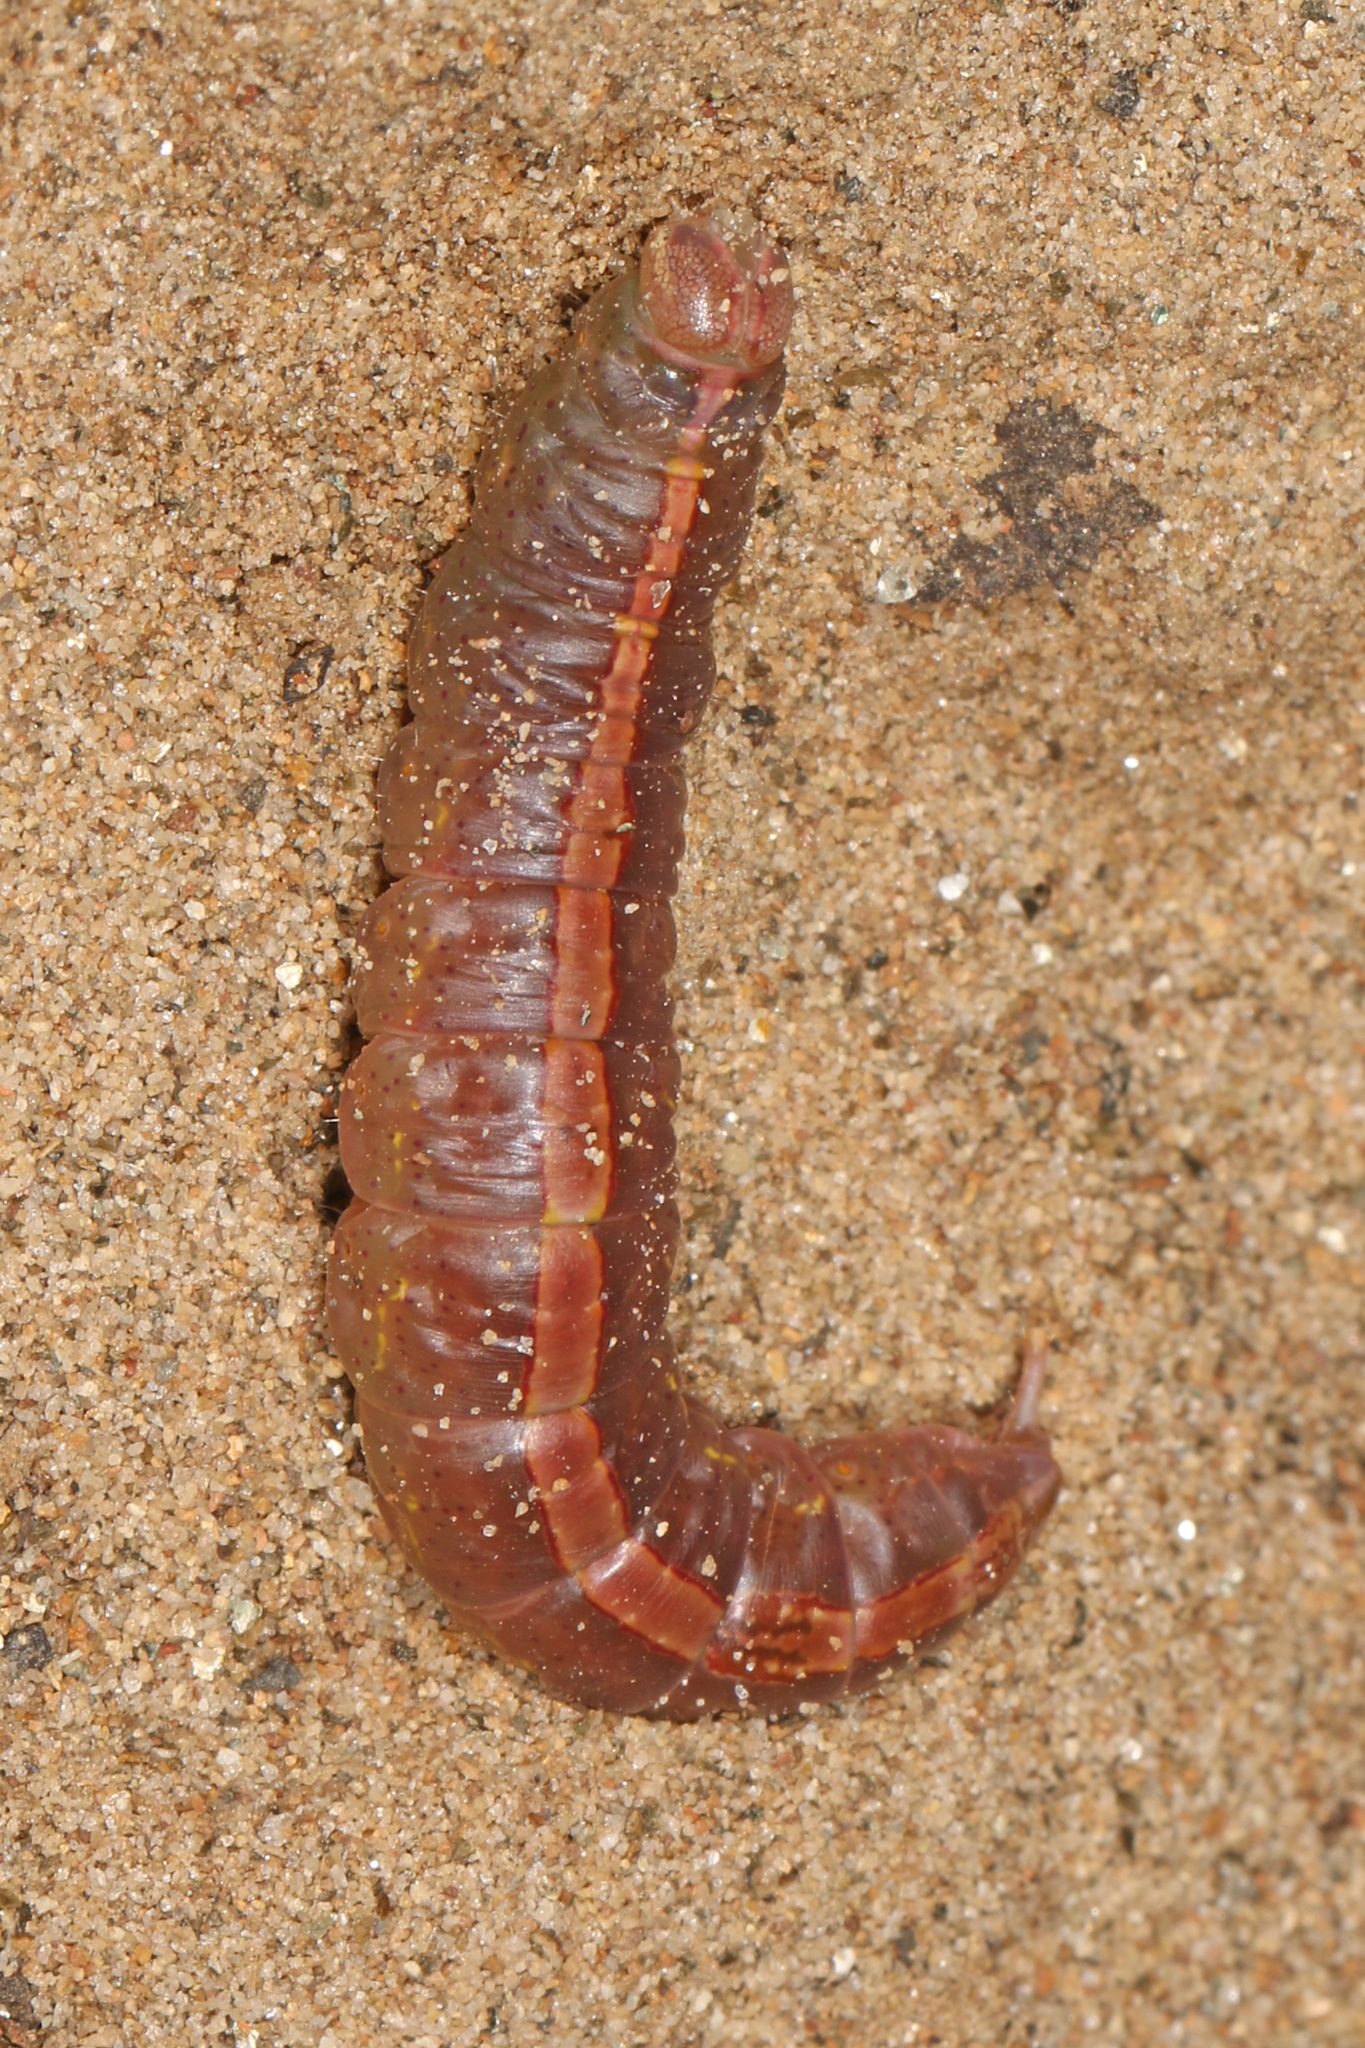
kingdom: Animalia
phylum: Arthropoda
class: Insecta
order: Lepidoptera
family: Notodontidae
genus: Misogada
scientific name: Misogada unicolor
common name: Drab prominent
